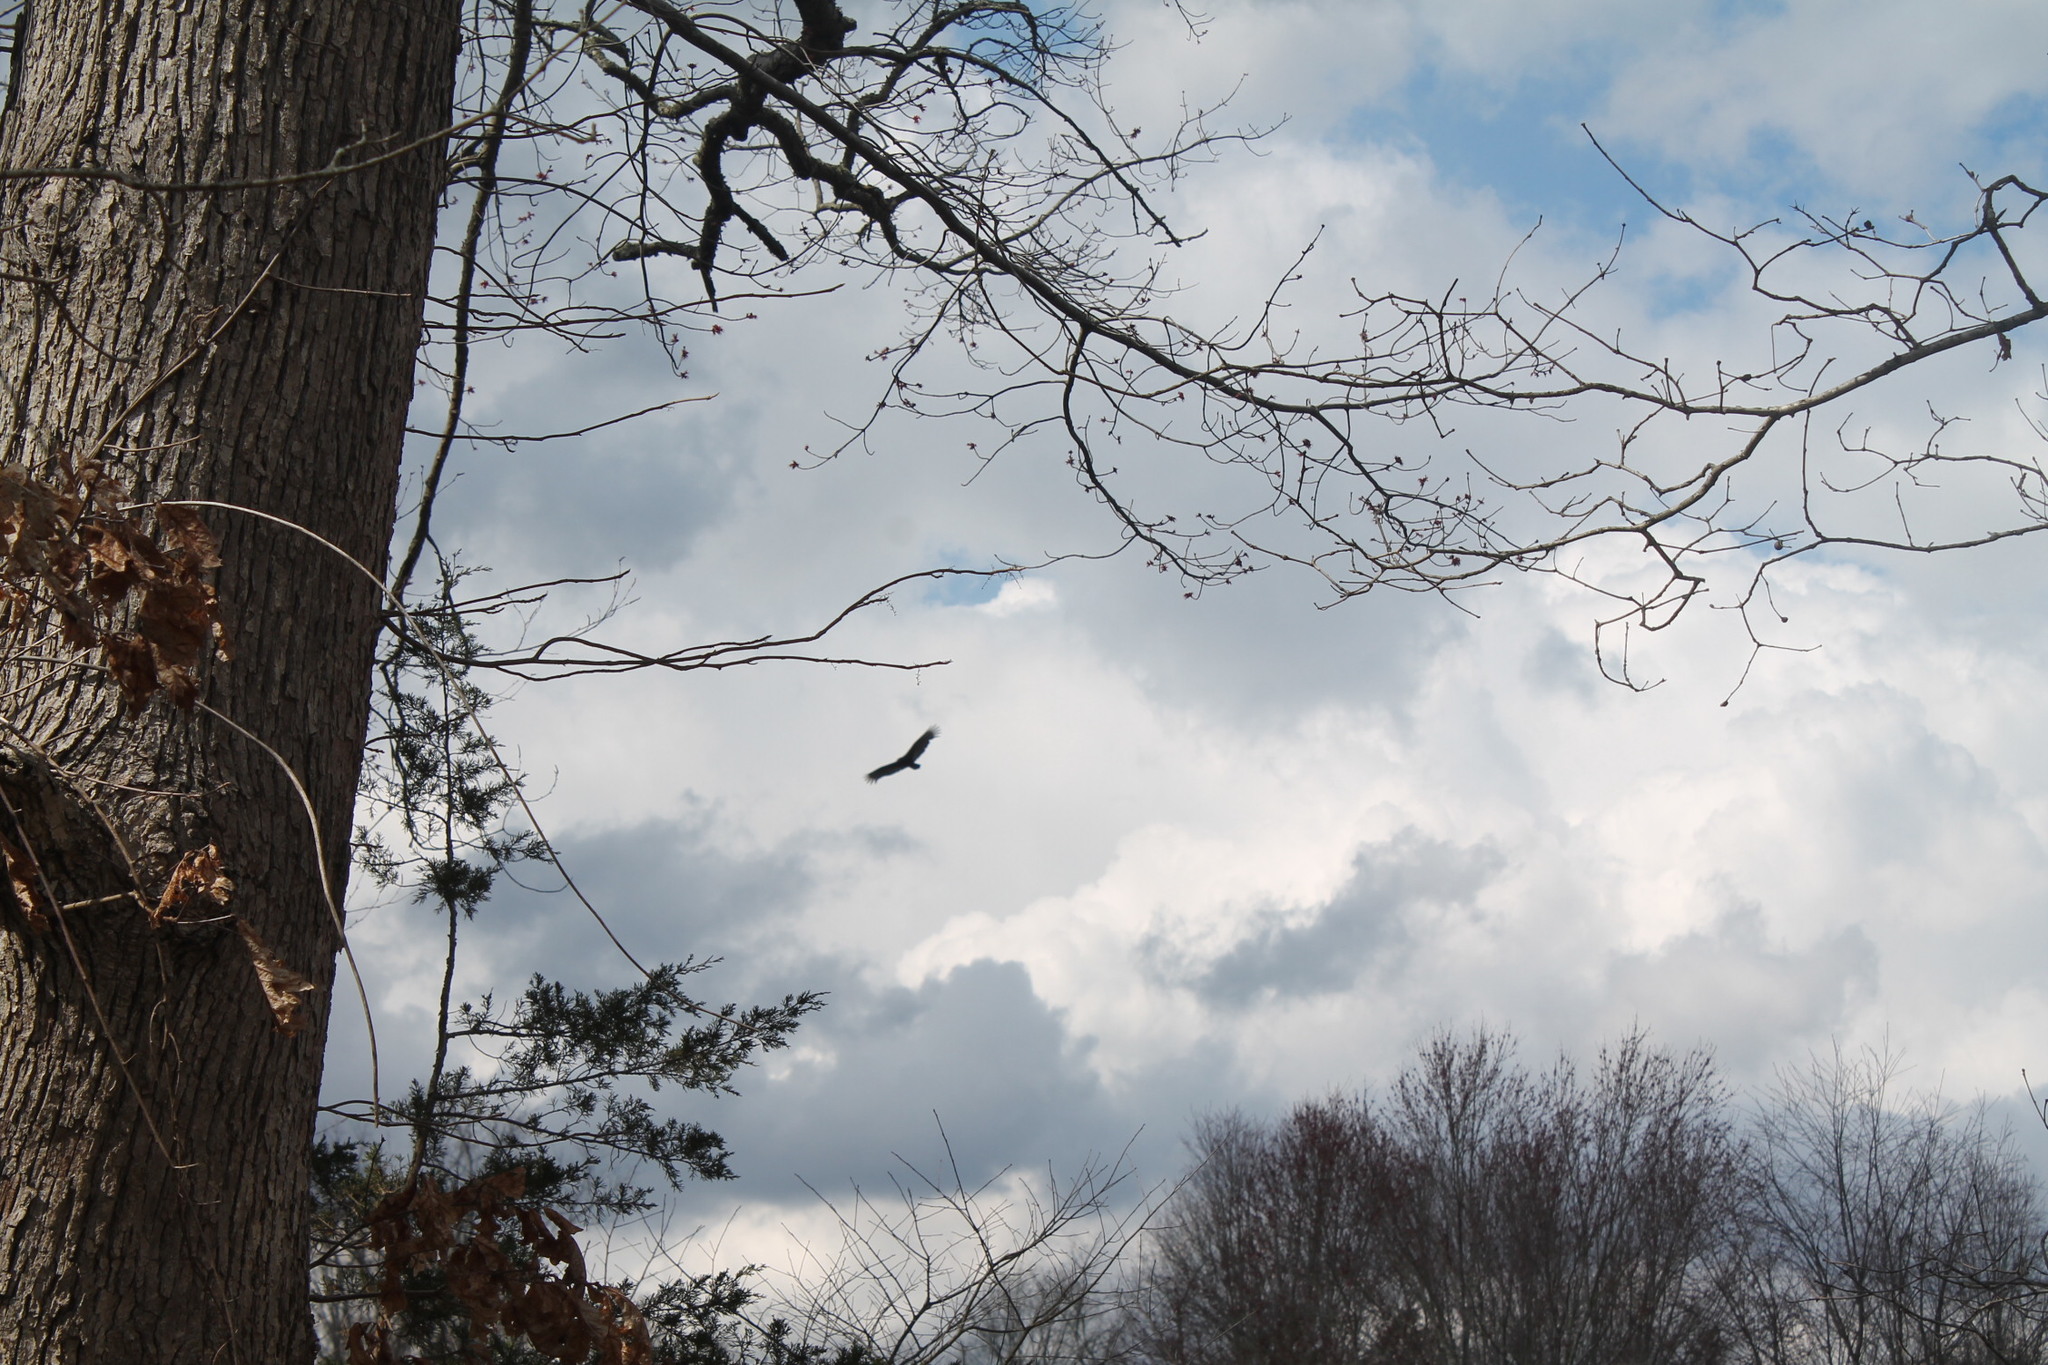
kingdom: Animalia
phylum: Chordata
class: Aves
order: Accipitriformes
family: Cathartidae
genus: Cathartes
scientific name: Cathartes aura
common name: Turkey vulture
